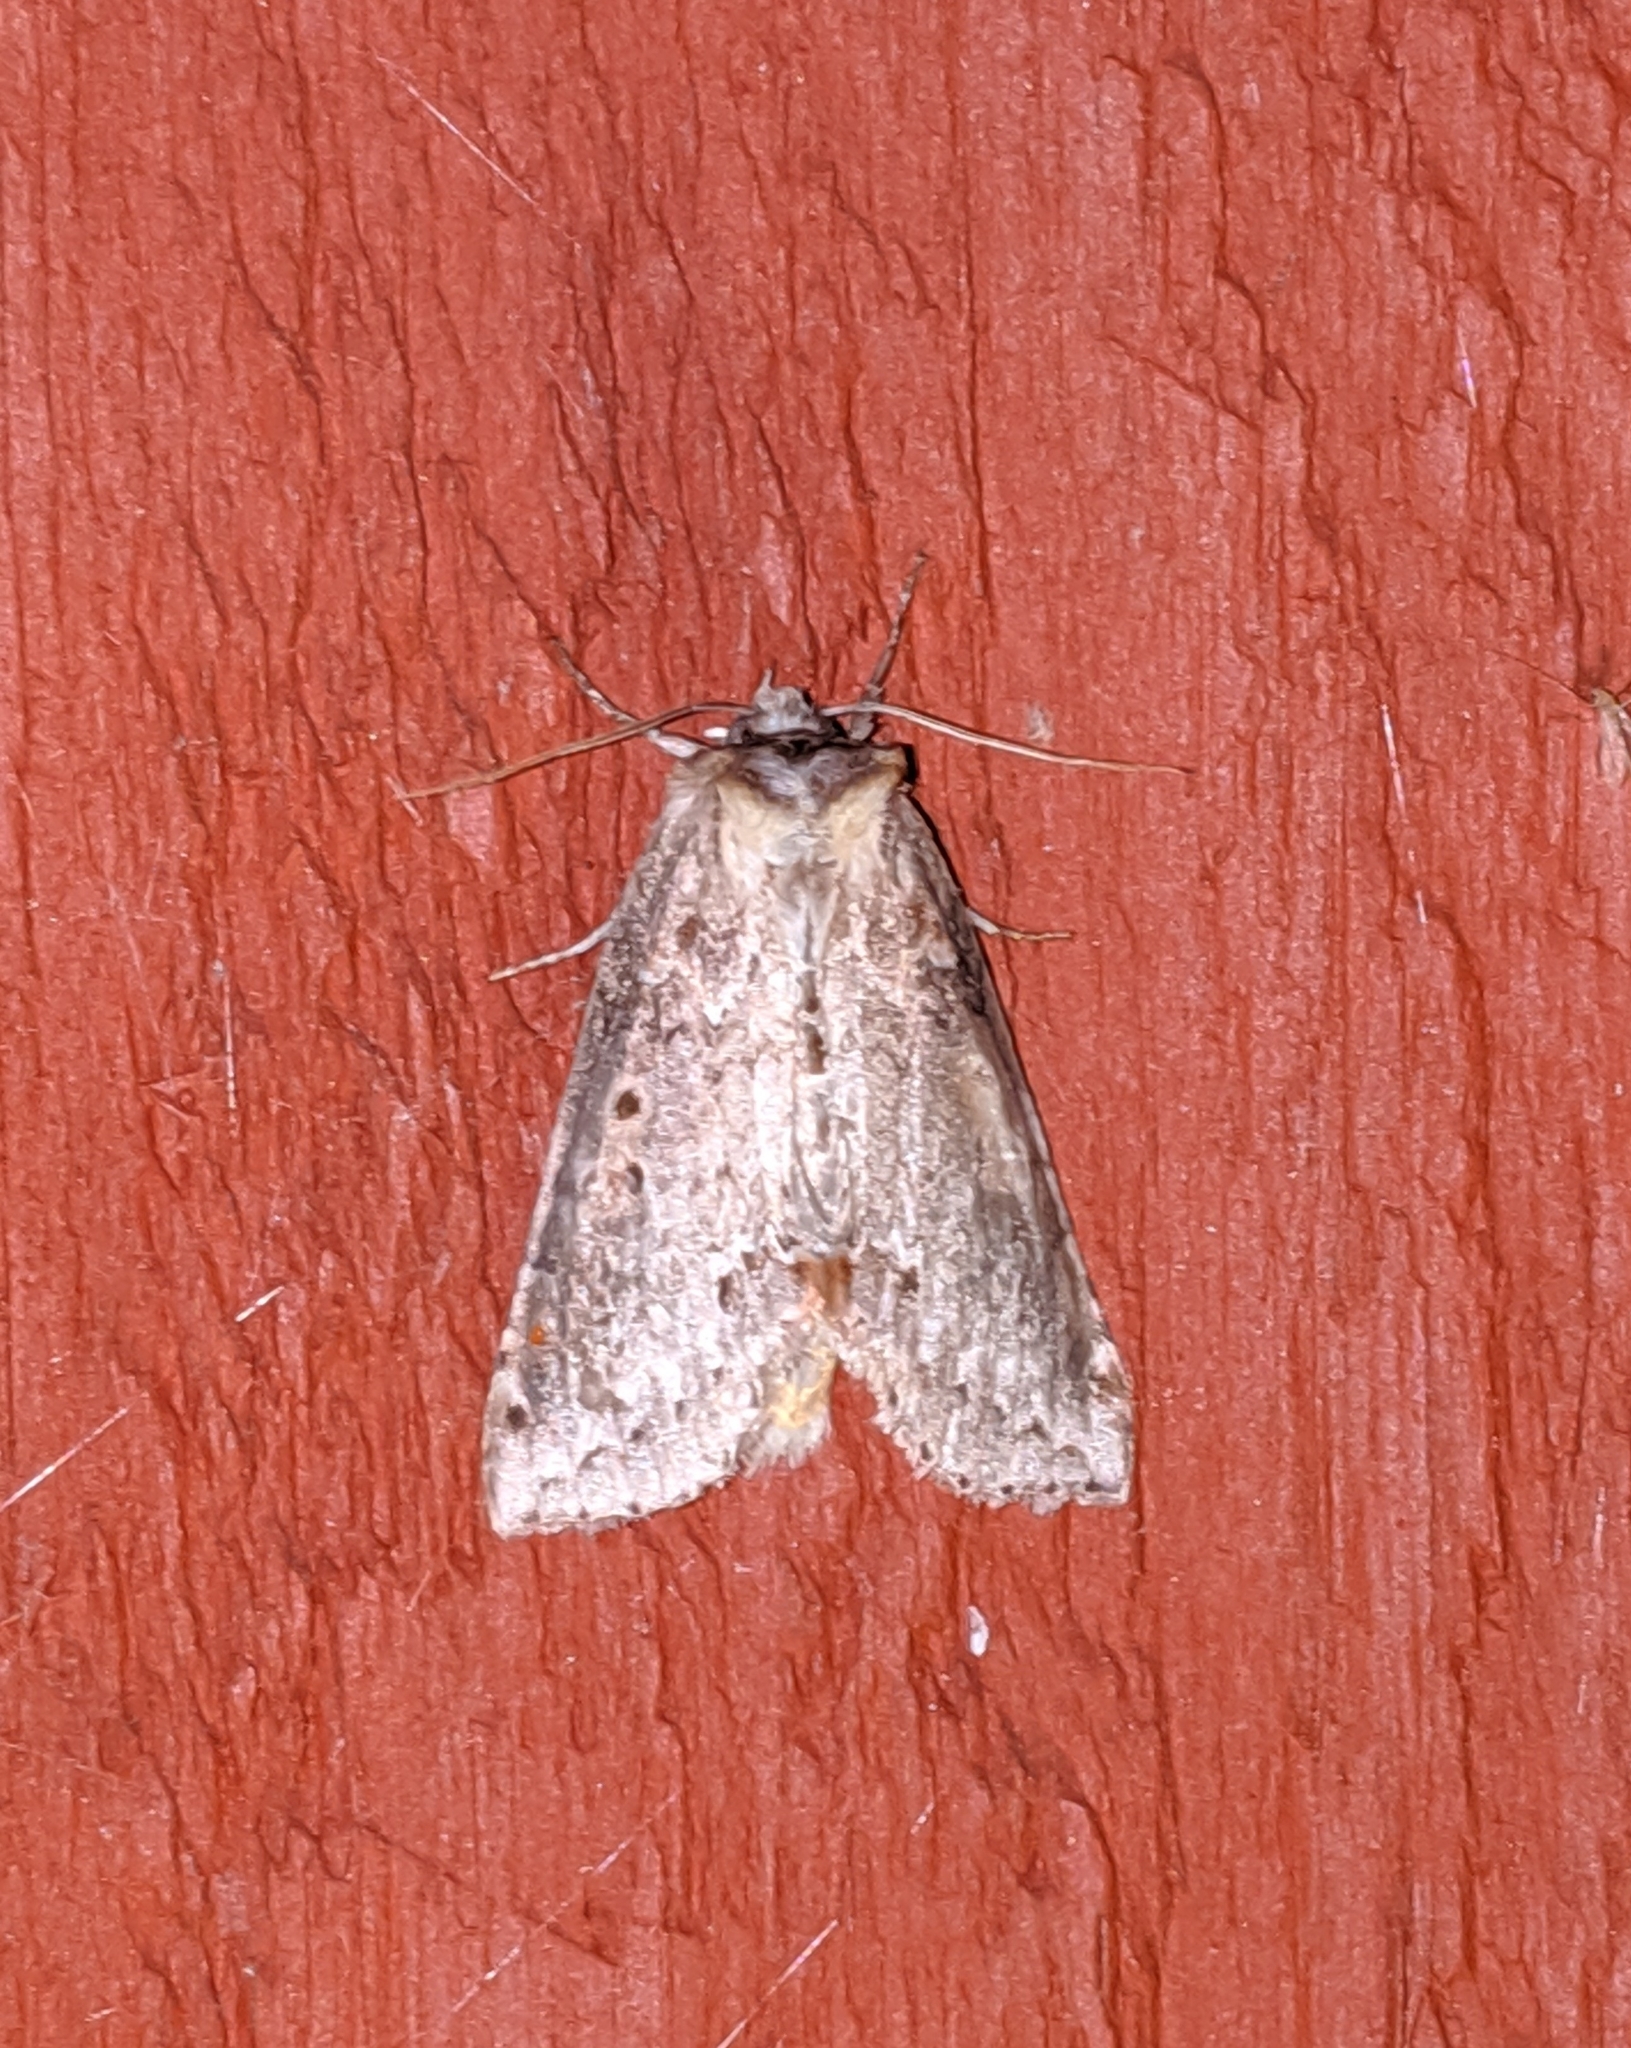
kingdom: Animalia
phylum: Arthropoda
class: Insecta
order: Lepidoptera
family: Drepanidae
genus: Pseudothyatira
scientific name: Pseudothyatira cymatophoroides
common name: Tufted thyatirid moth
